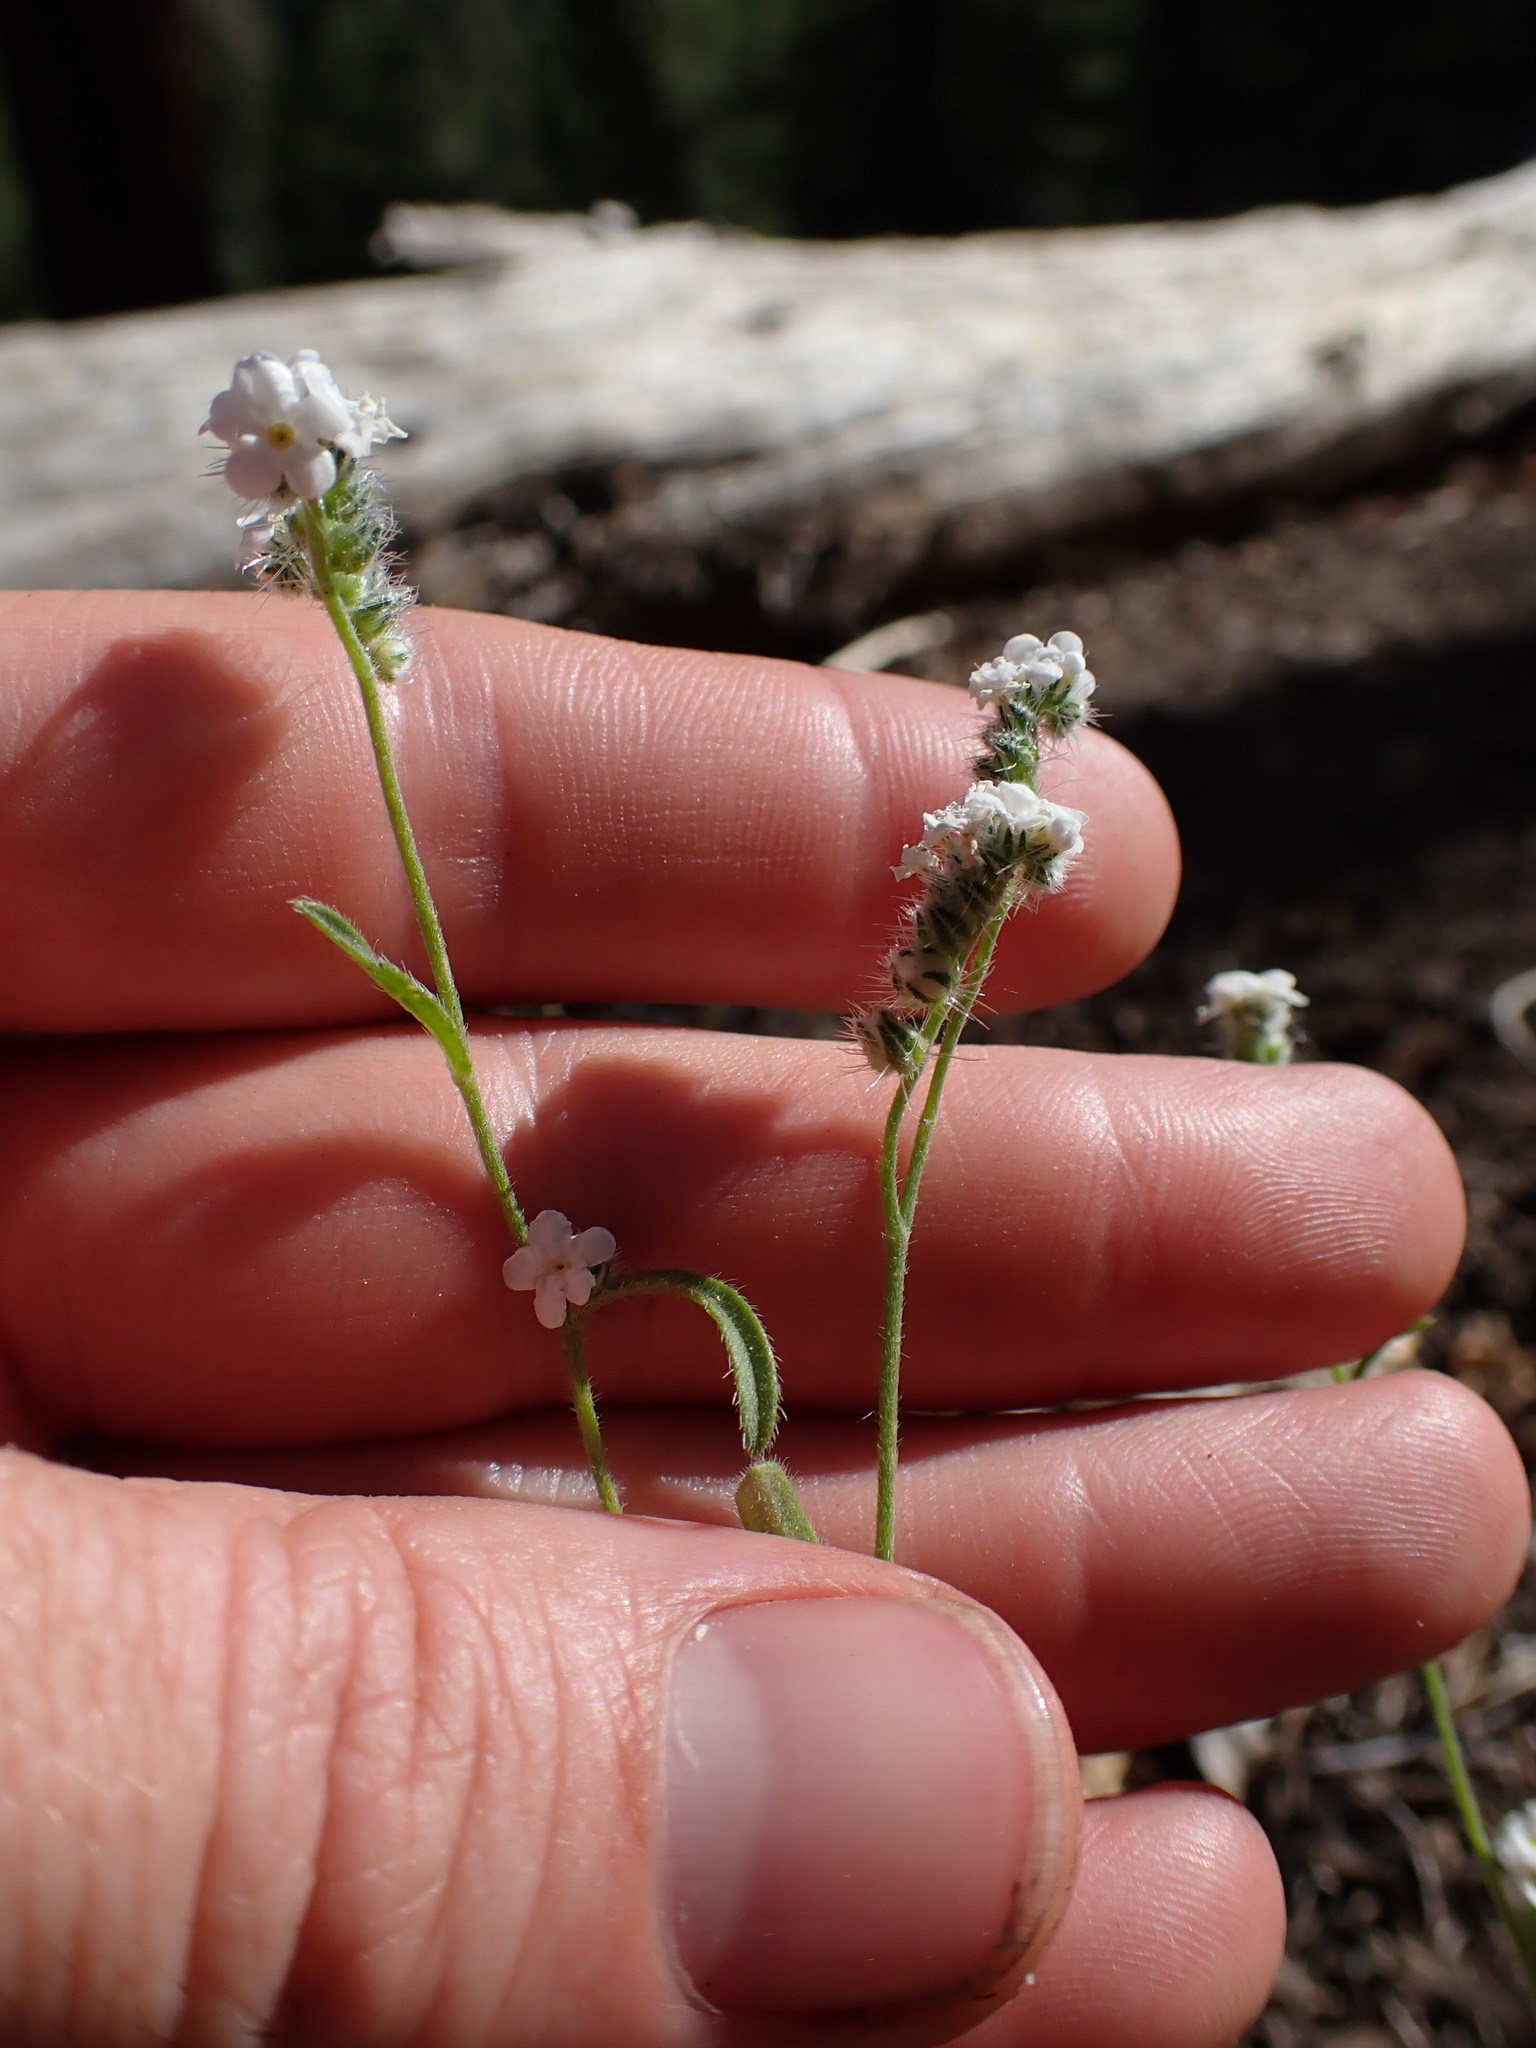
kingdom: Plantae
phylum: Tracheophyta
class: Magnoliopsida
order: Boraginales
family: Boraginaceae
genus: Cryptantha
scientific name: Cryptantha incana
